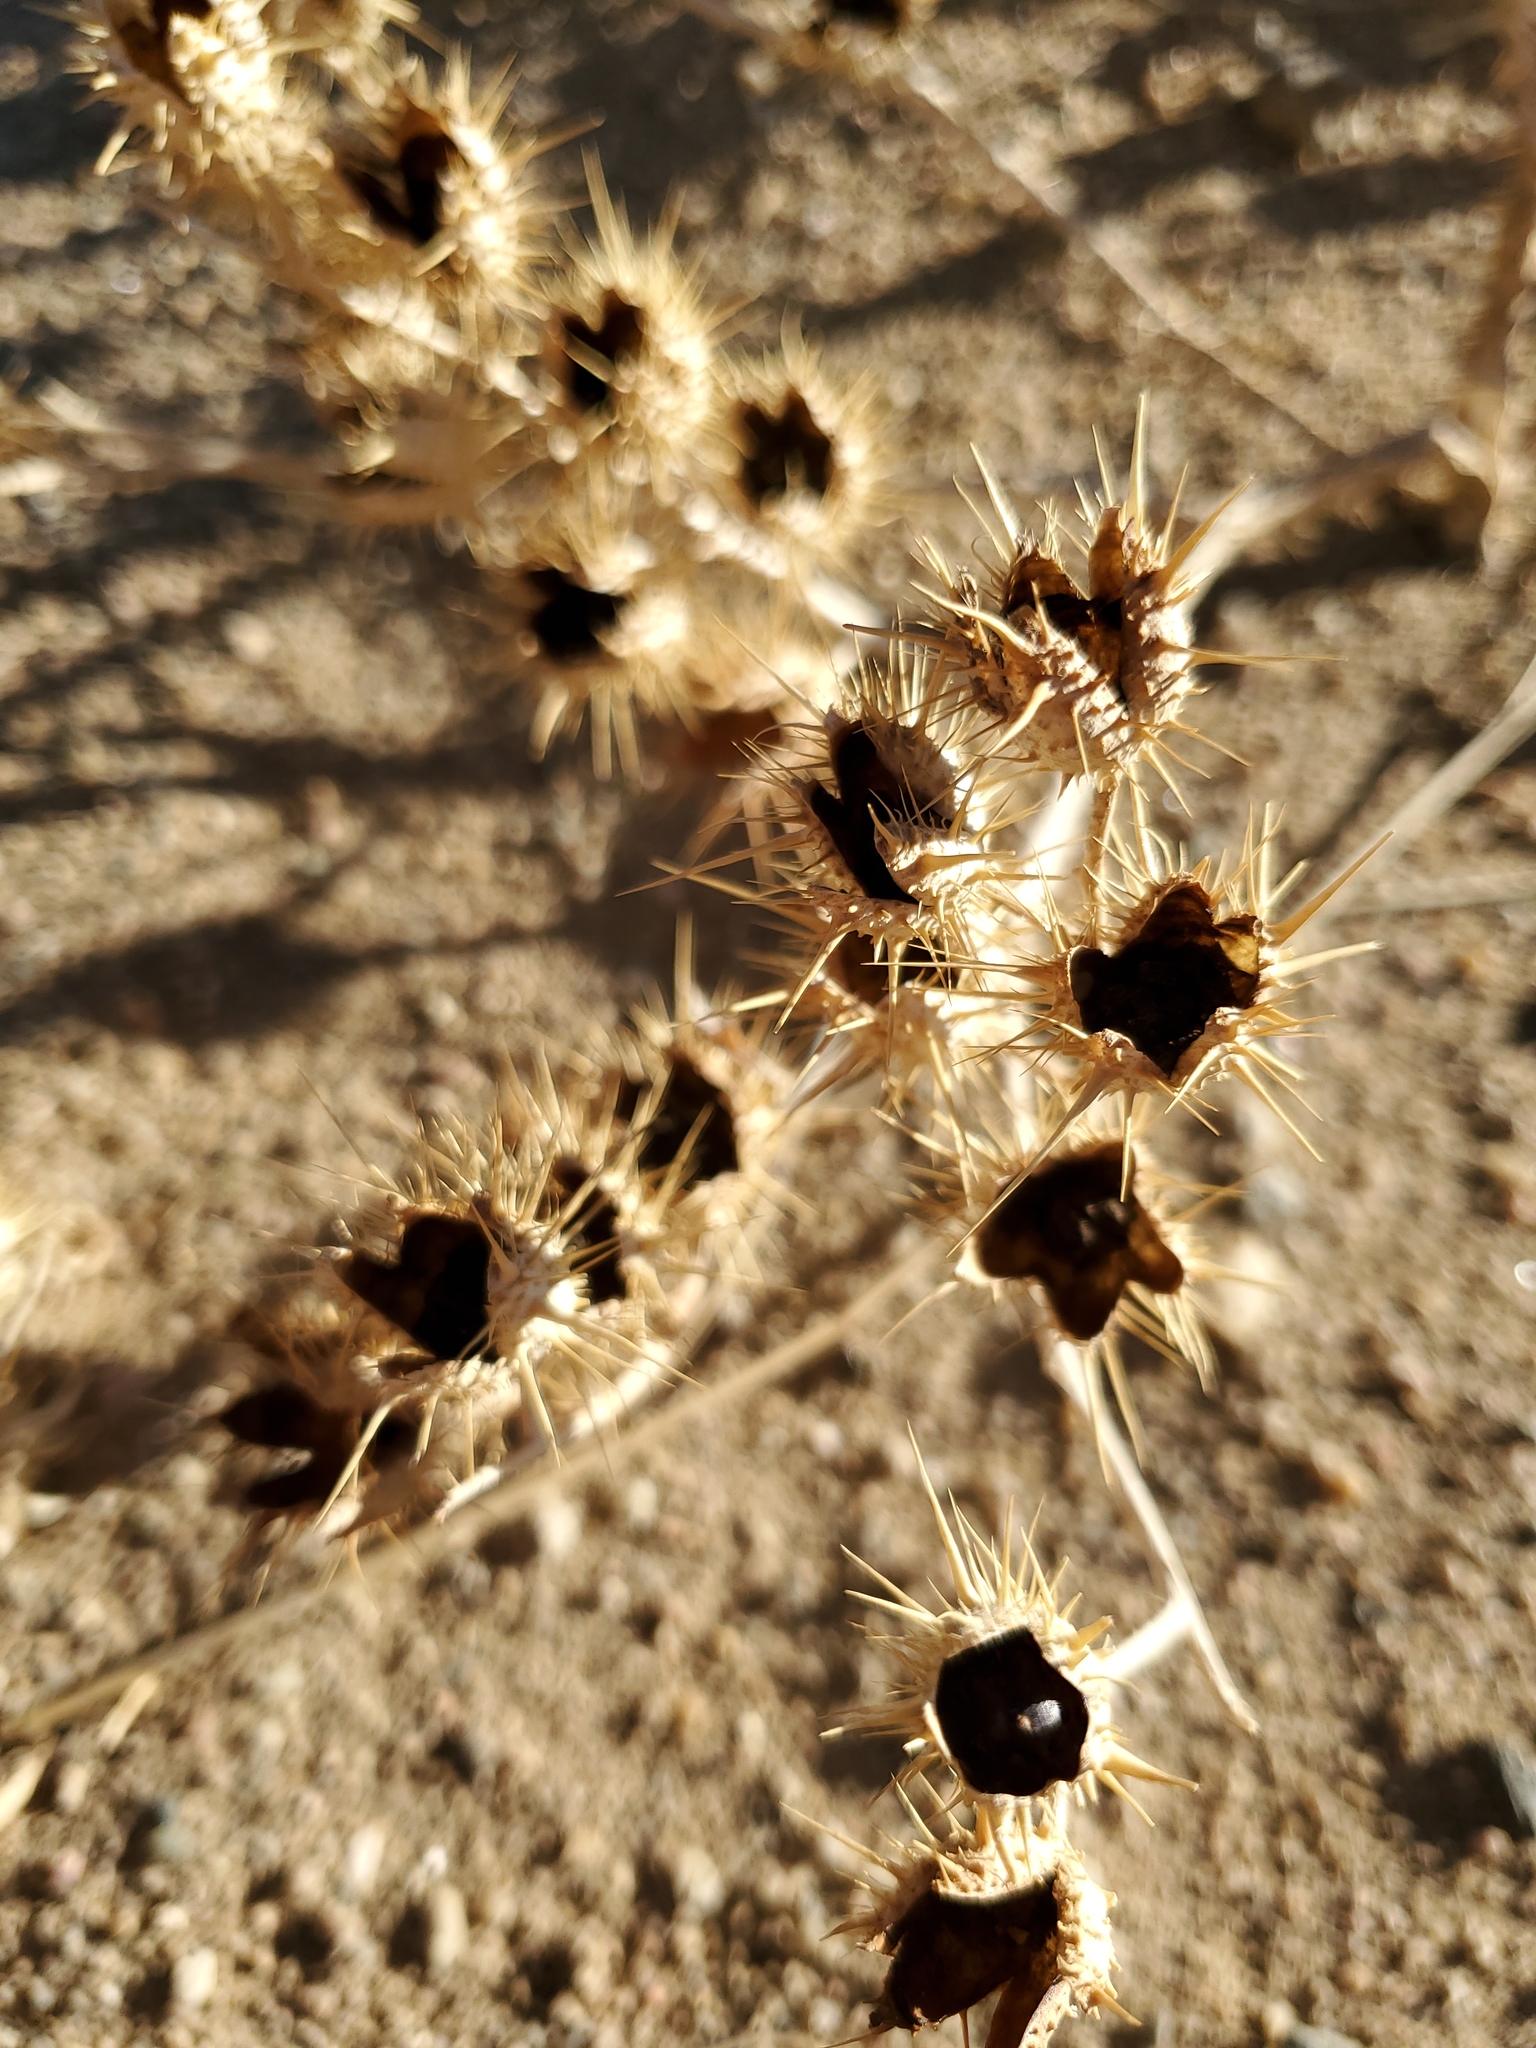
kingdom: Plantae
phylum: Tracheophyta
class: Magnoliopsida
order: Ranunculales
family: Papaveraceae
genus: Argemone
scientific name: Argemone polyanthemos
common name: Plains prickly-poppy
